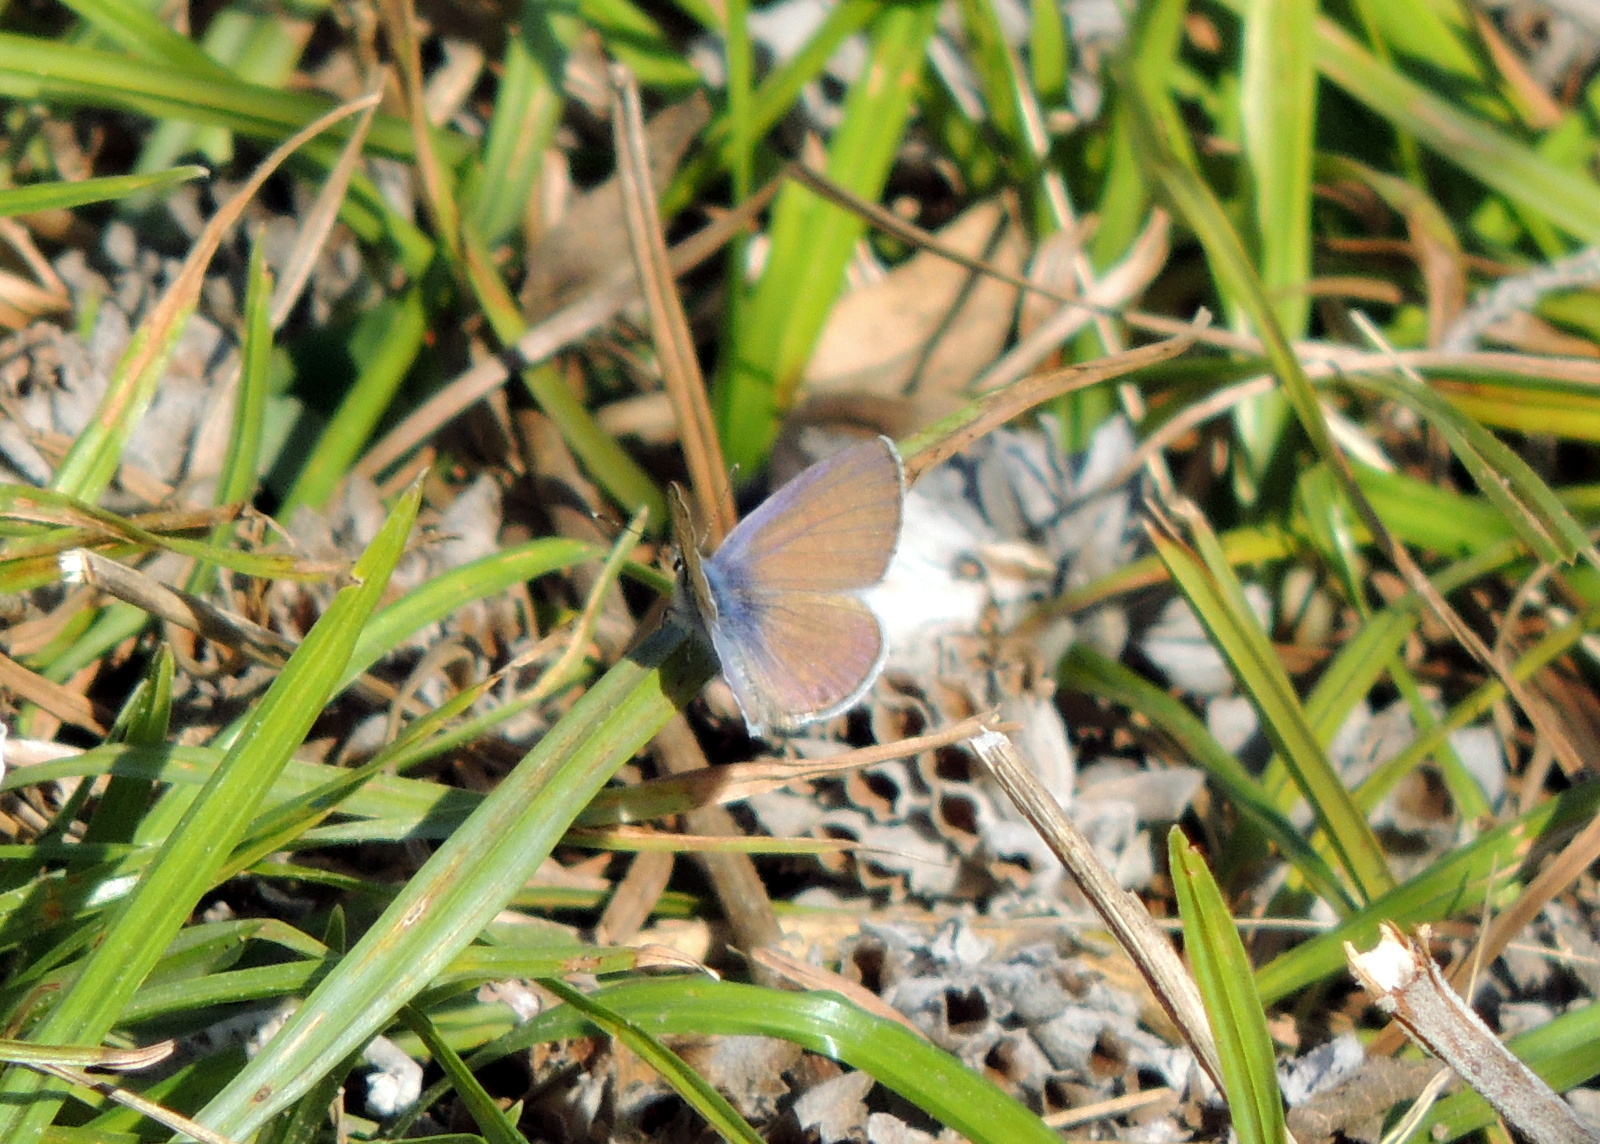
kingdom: Animalia
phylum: Arthropoda
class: Insecta
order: Lepidoptera
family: Lycaenidae
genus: Leptotes
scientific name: Leptotes marina
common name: Marine blue
